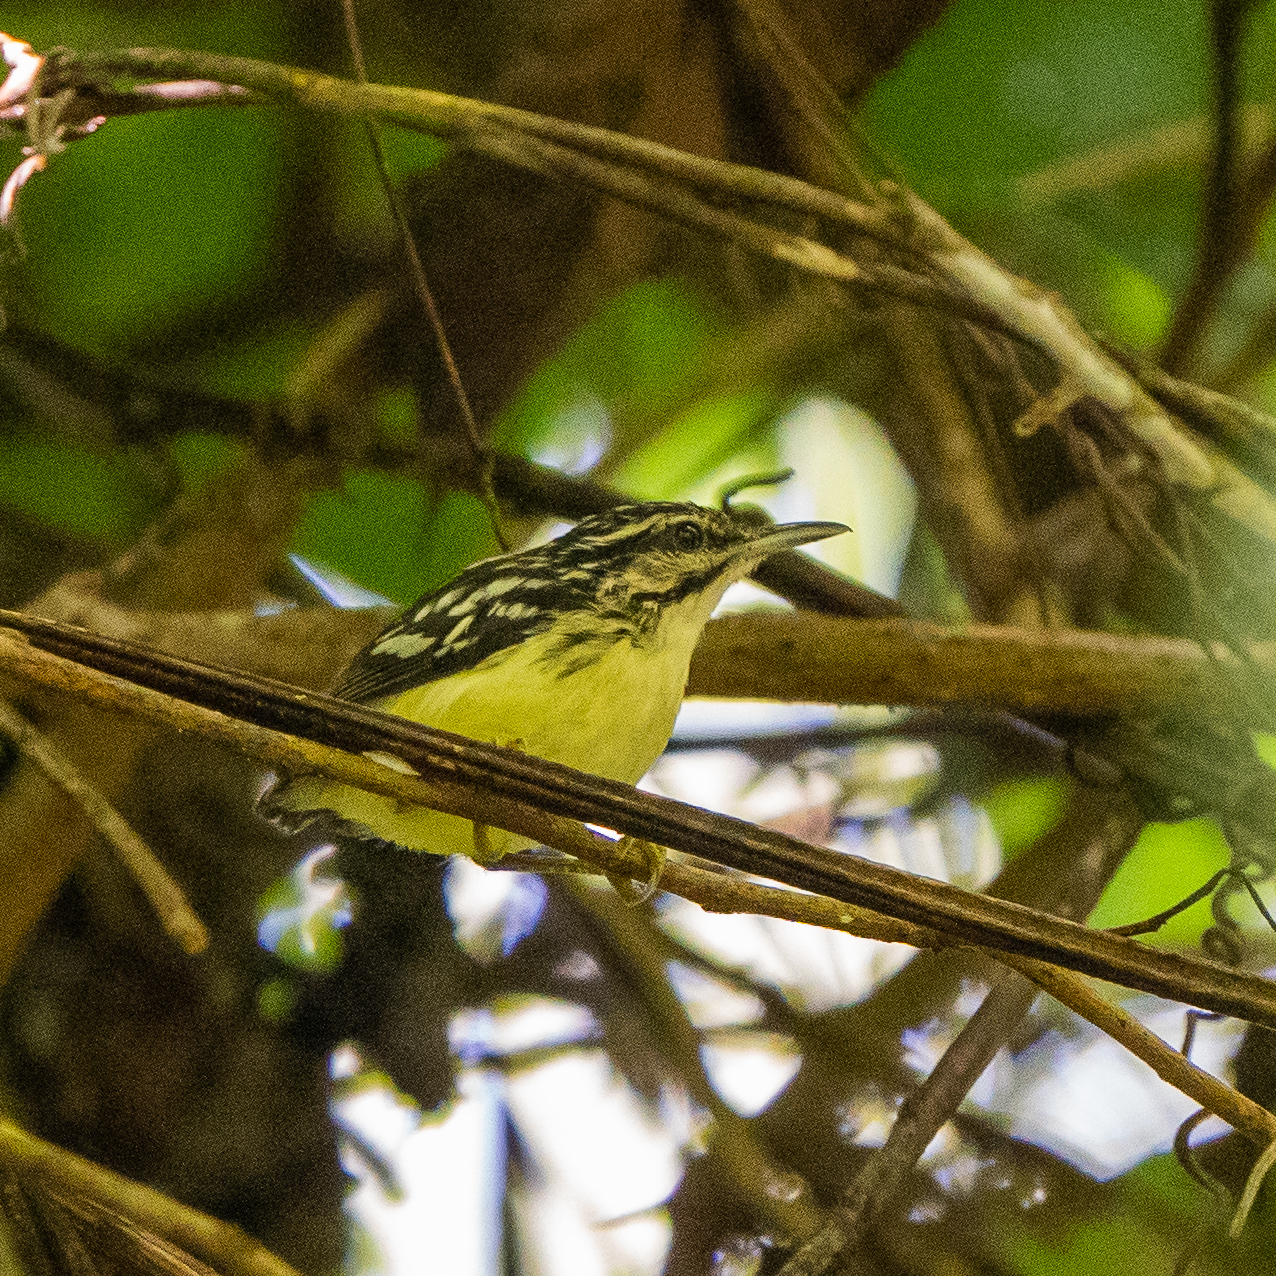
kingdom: Animalia
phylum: Chordata
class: Aves
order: Passeriformes
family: Thamnophilidae
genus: Myrmotherula
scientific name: Myrmotherula ignota
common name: Moustached antwren
